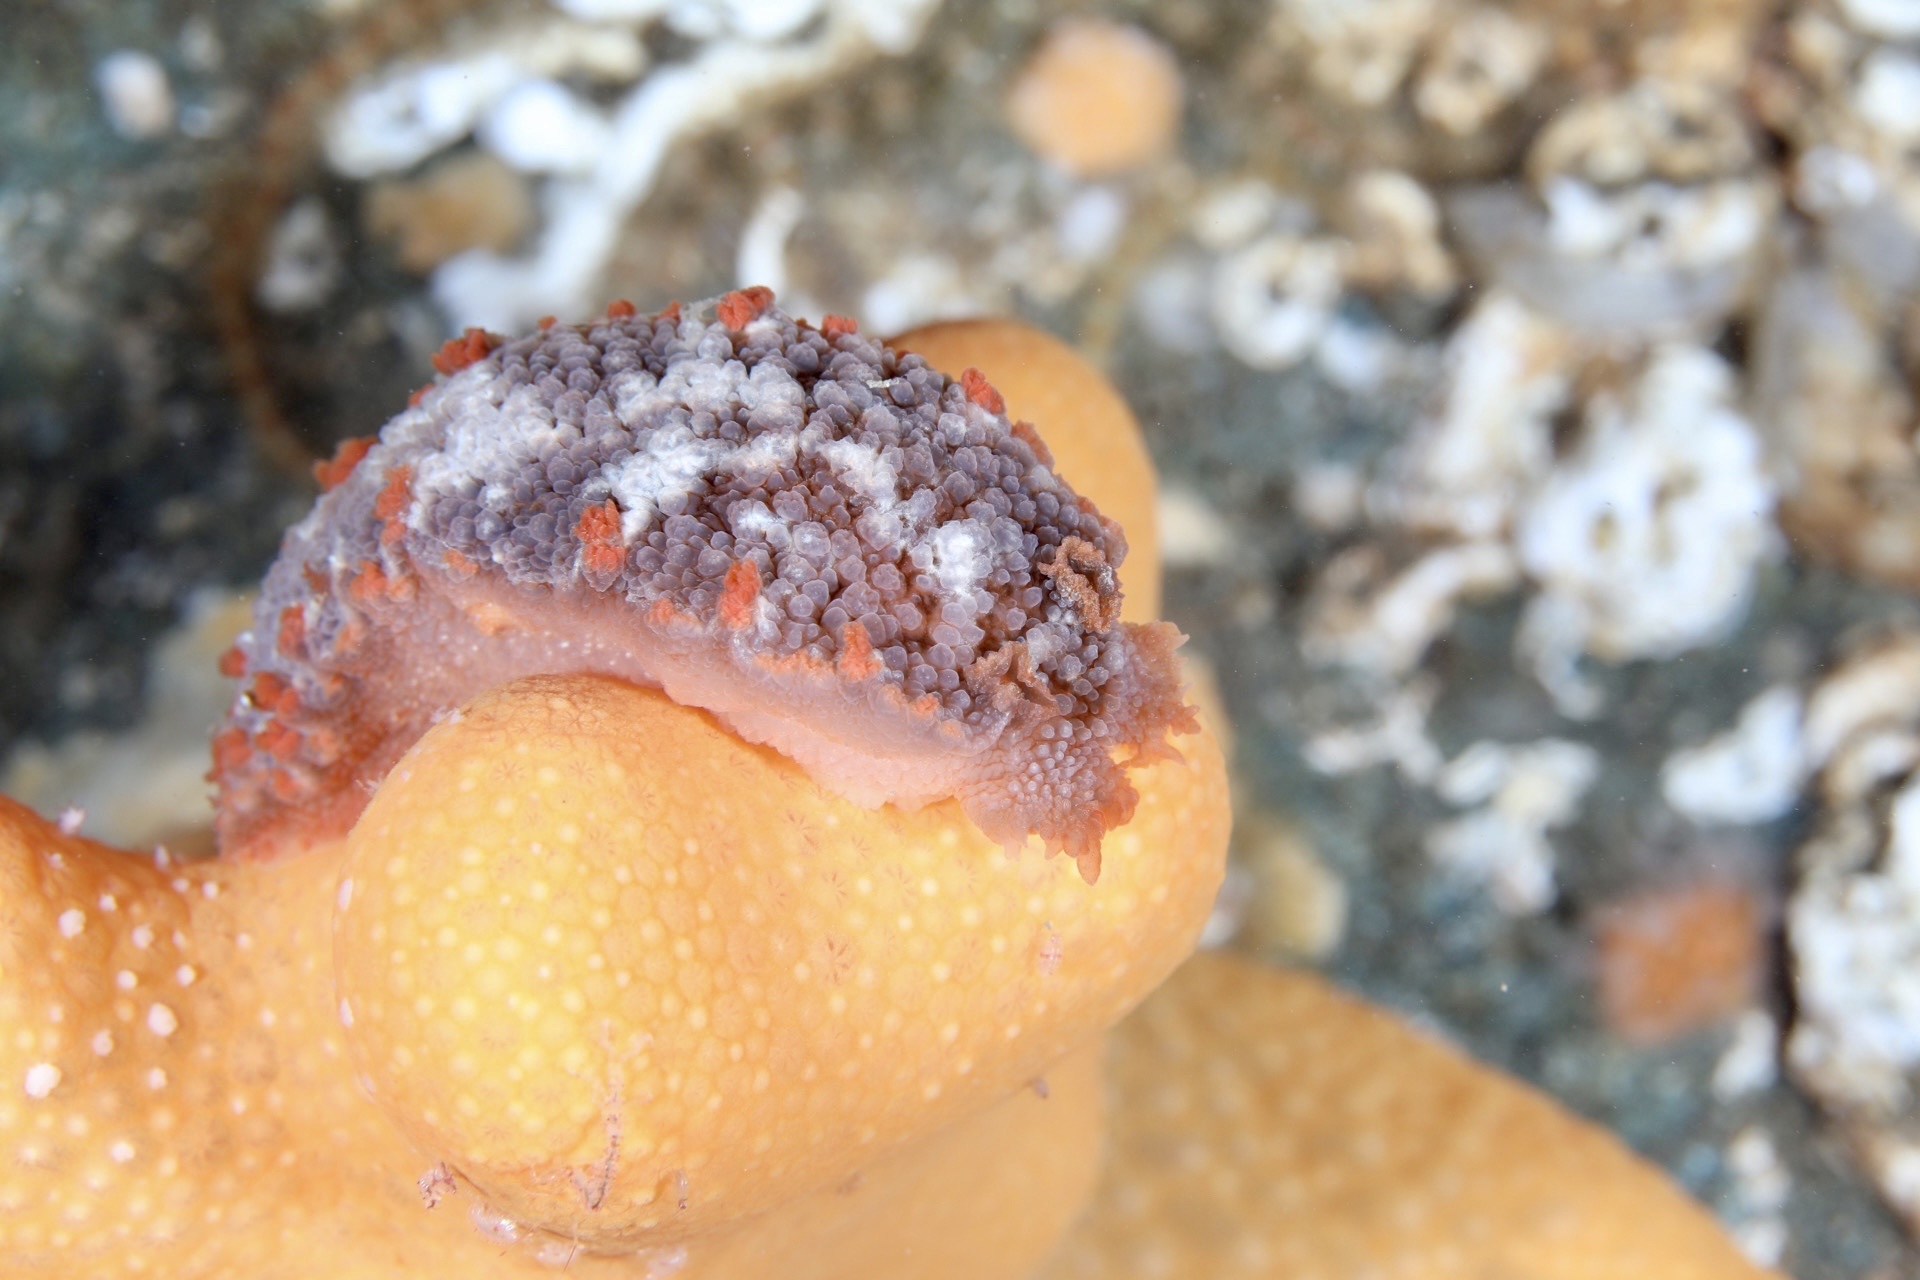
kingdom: Animalia
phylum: Mollusca
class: Gastropoda
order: Nudibranchia
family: Tritoniidae
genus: Tritonia
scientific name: Tritonia hombergii
